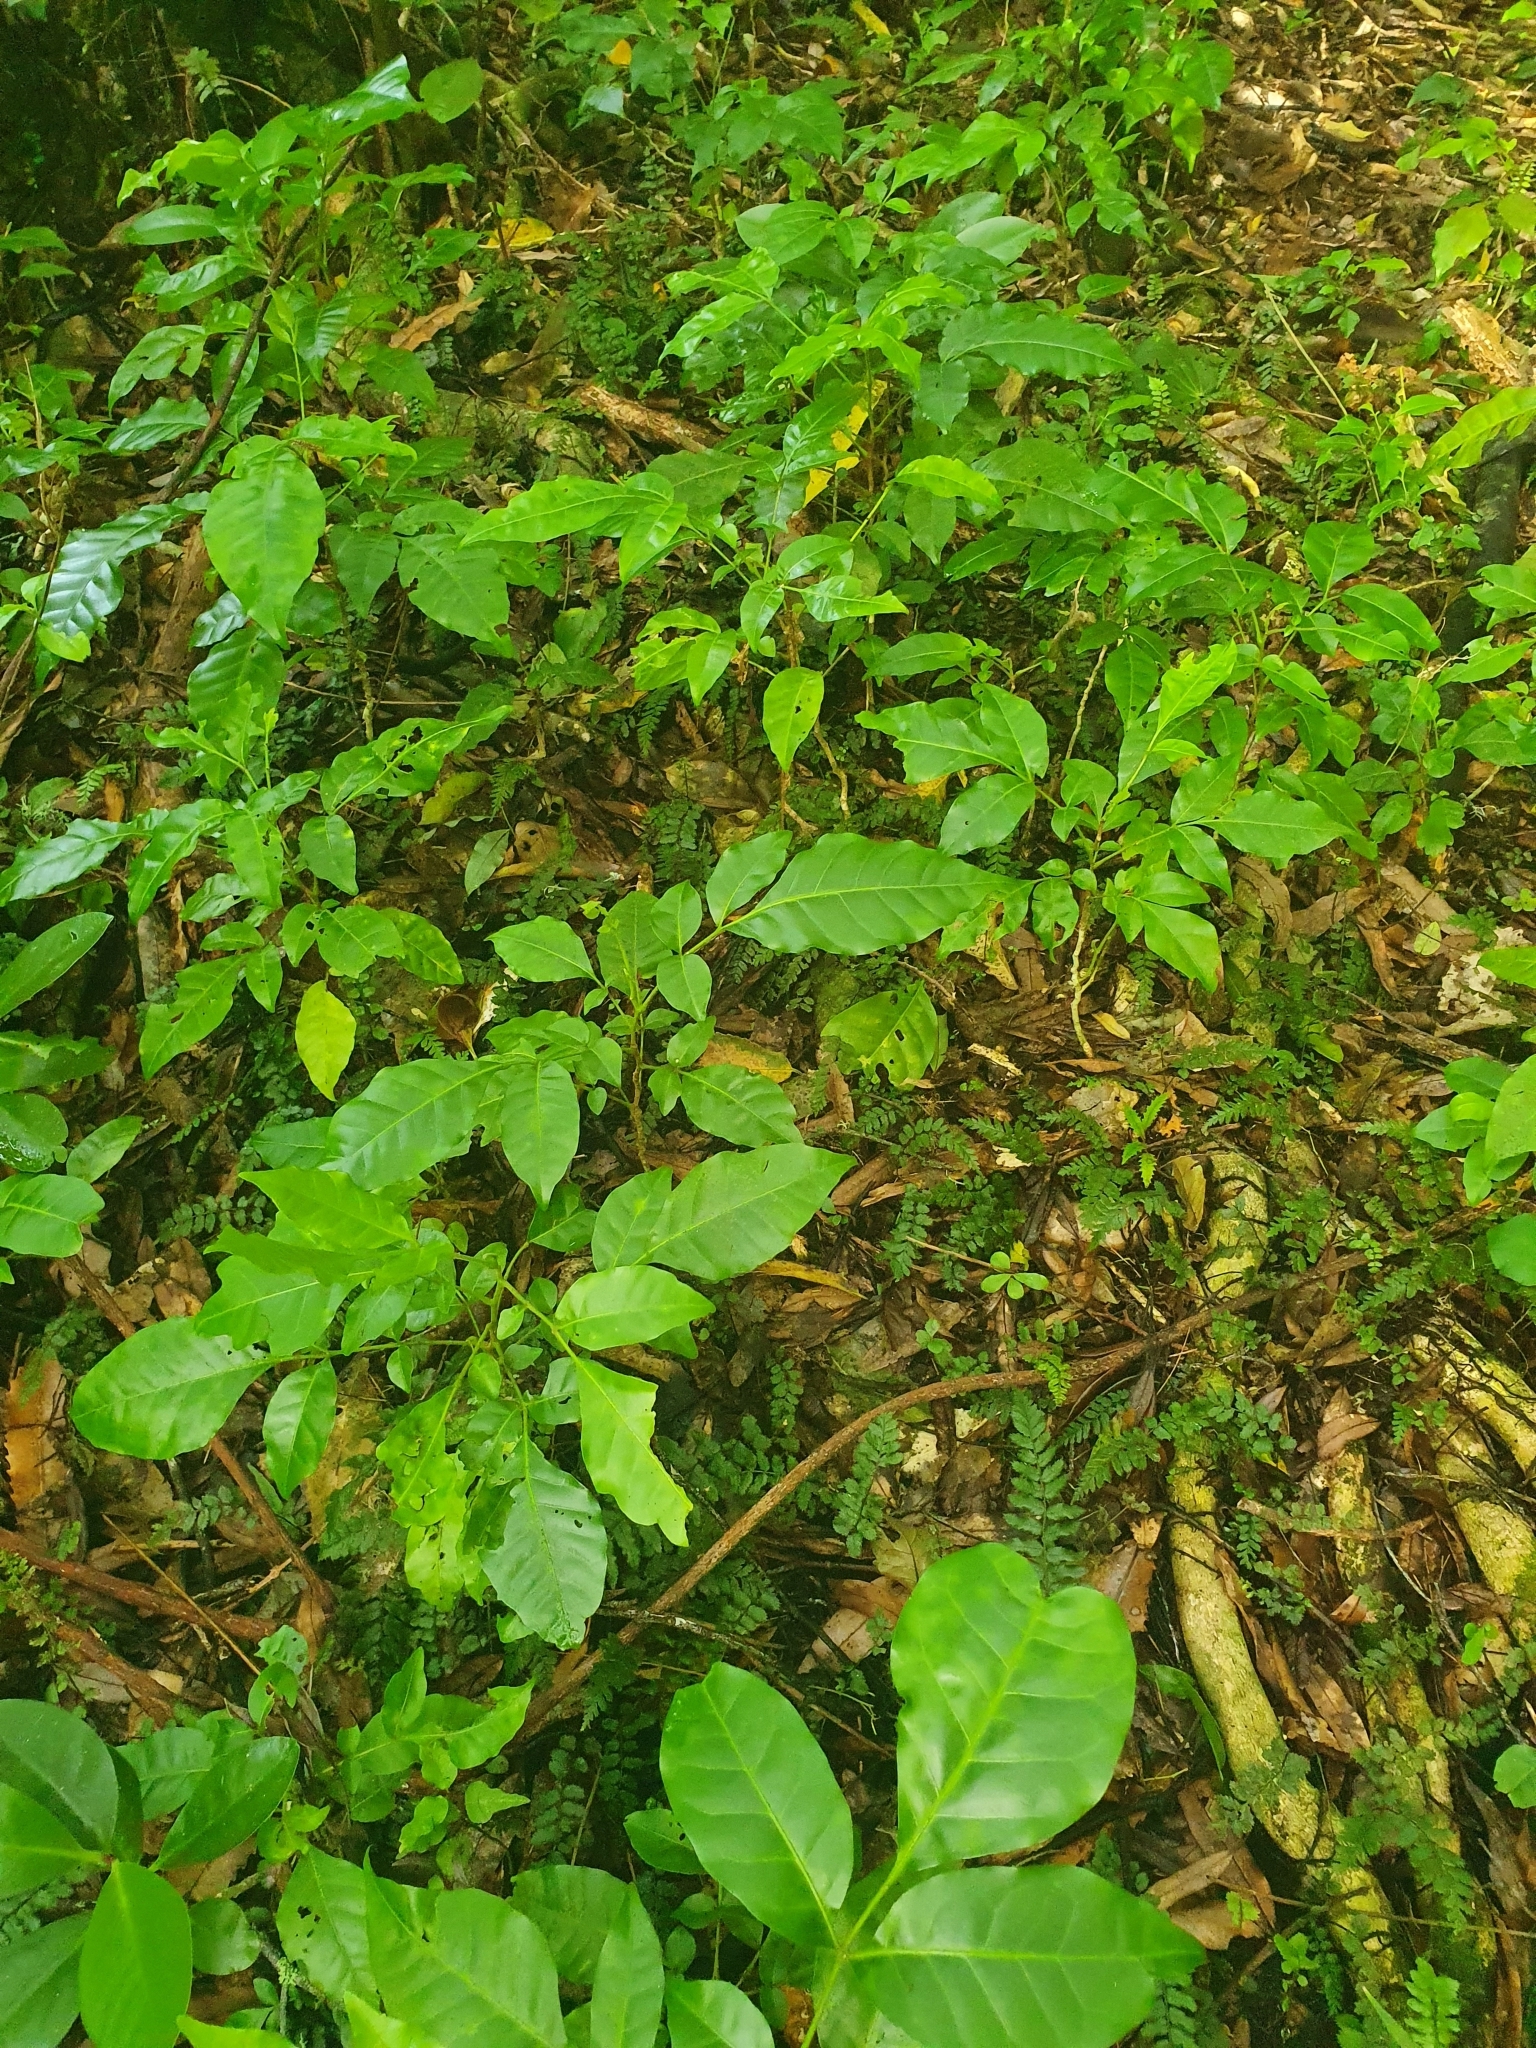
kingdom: Plantae
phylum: Tracheophyta
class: Magnoliopsida
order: Sapindales
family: Meliaceae
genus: Didymocheton
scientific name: Didymocheton spectabilis
